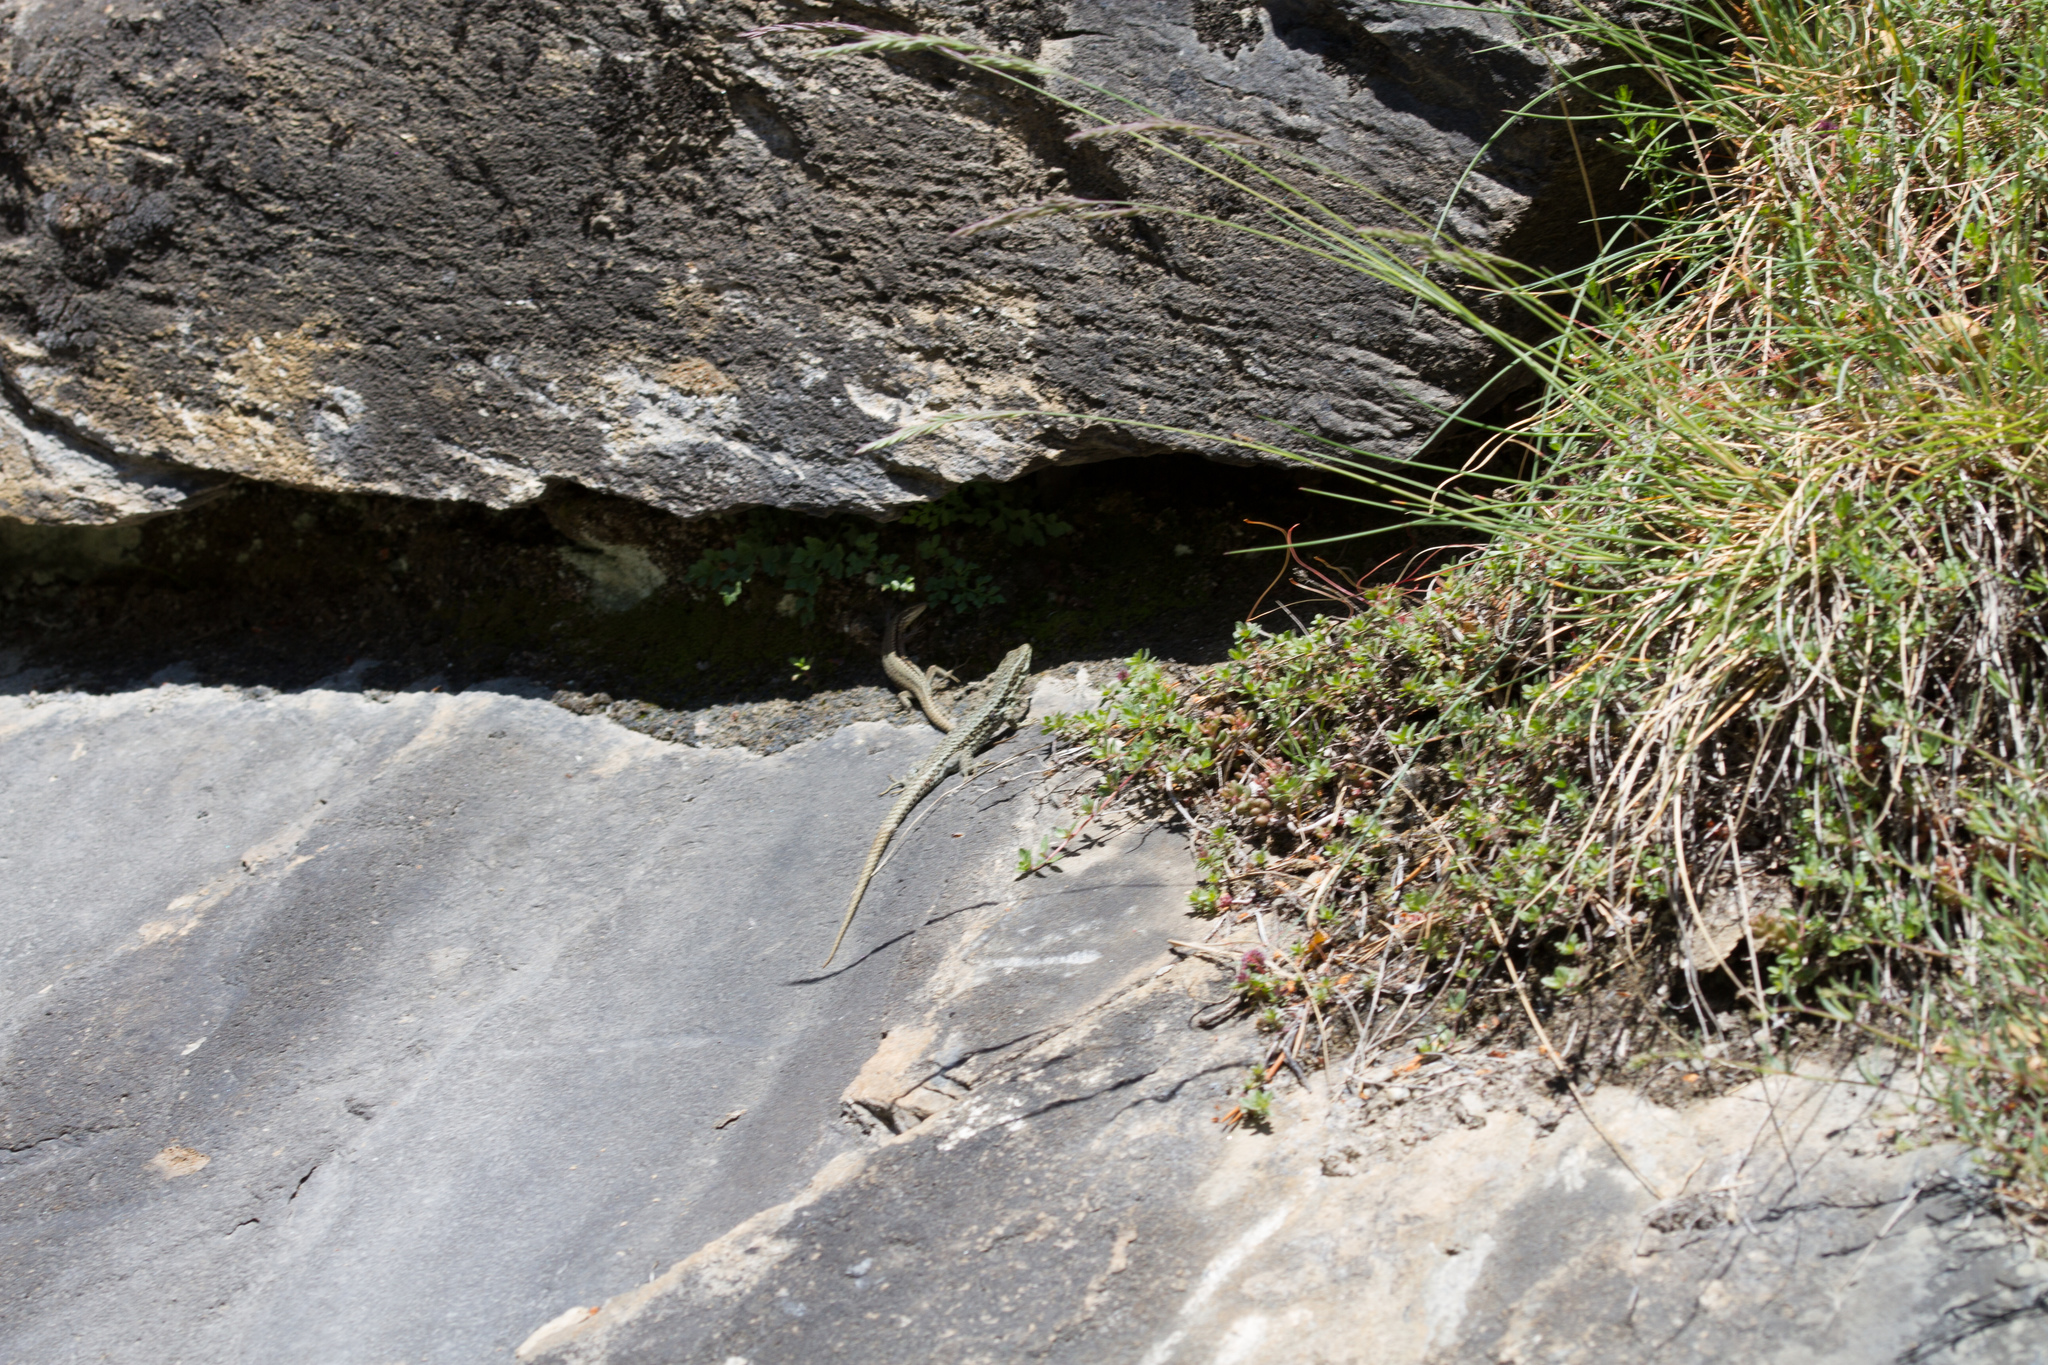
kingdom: Animalia
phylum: Chordata
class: Squamata
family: Lacertidae
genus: Podarcis
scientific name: Podarcis muralis
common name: Common wall lizard
